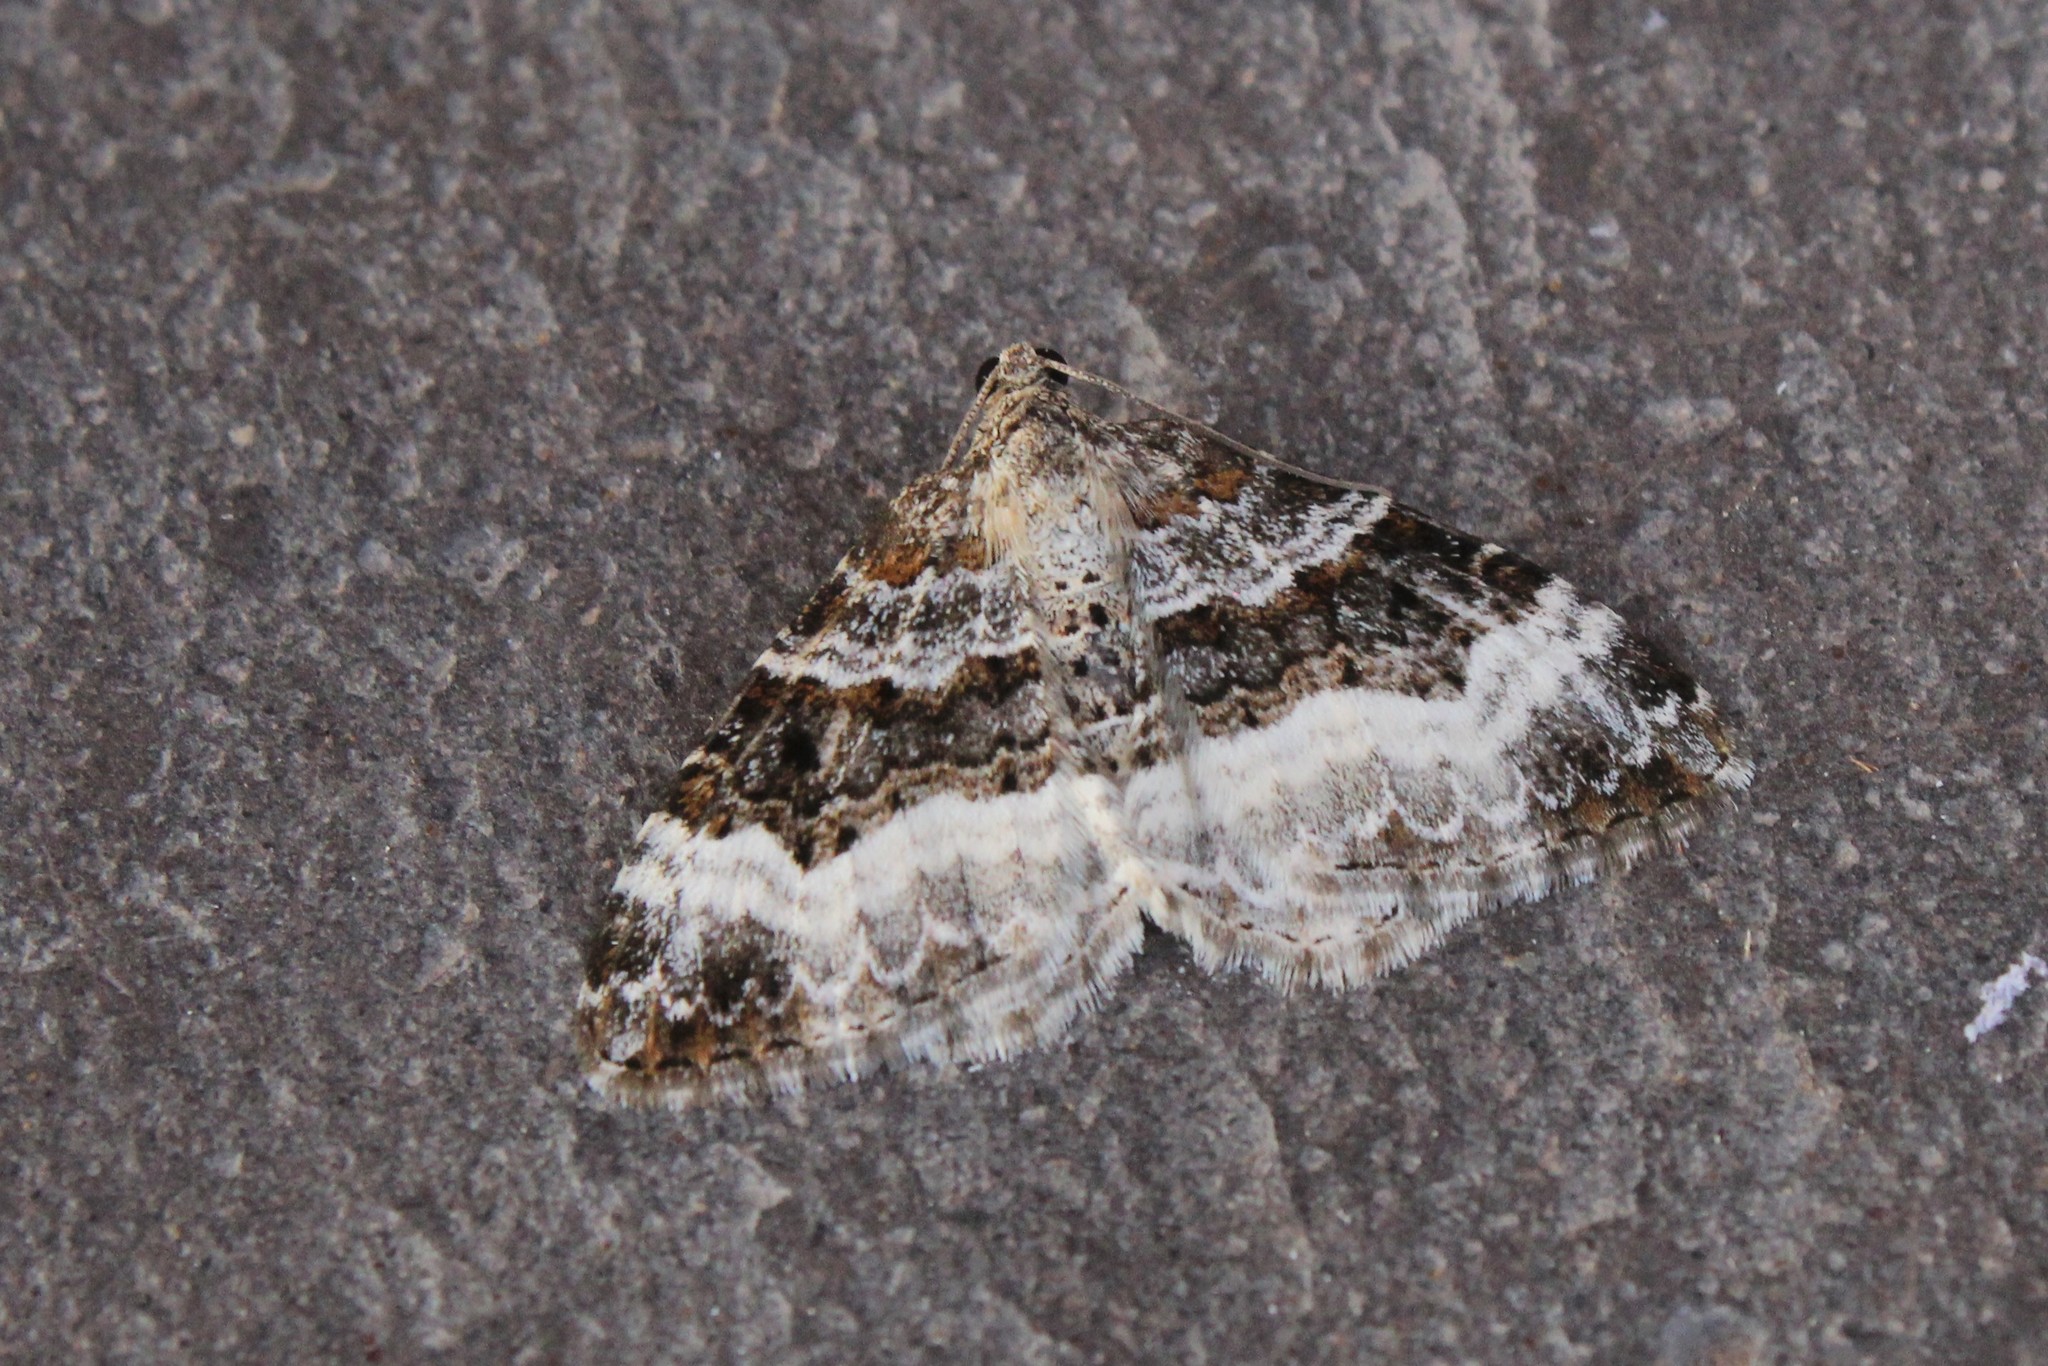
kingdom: Animalia
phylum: Arthropoda
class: Insecta
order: Lepidoptera
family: Geometridae
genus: Epirrhoe
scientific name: Epirrhoe alternata
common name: Common carpet
